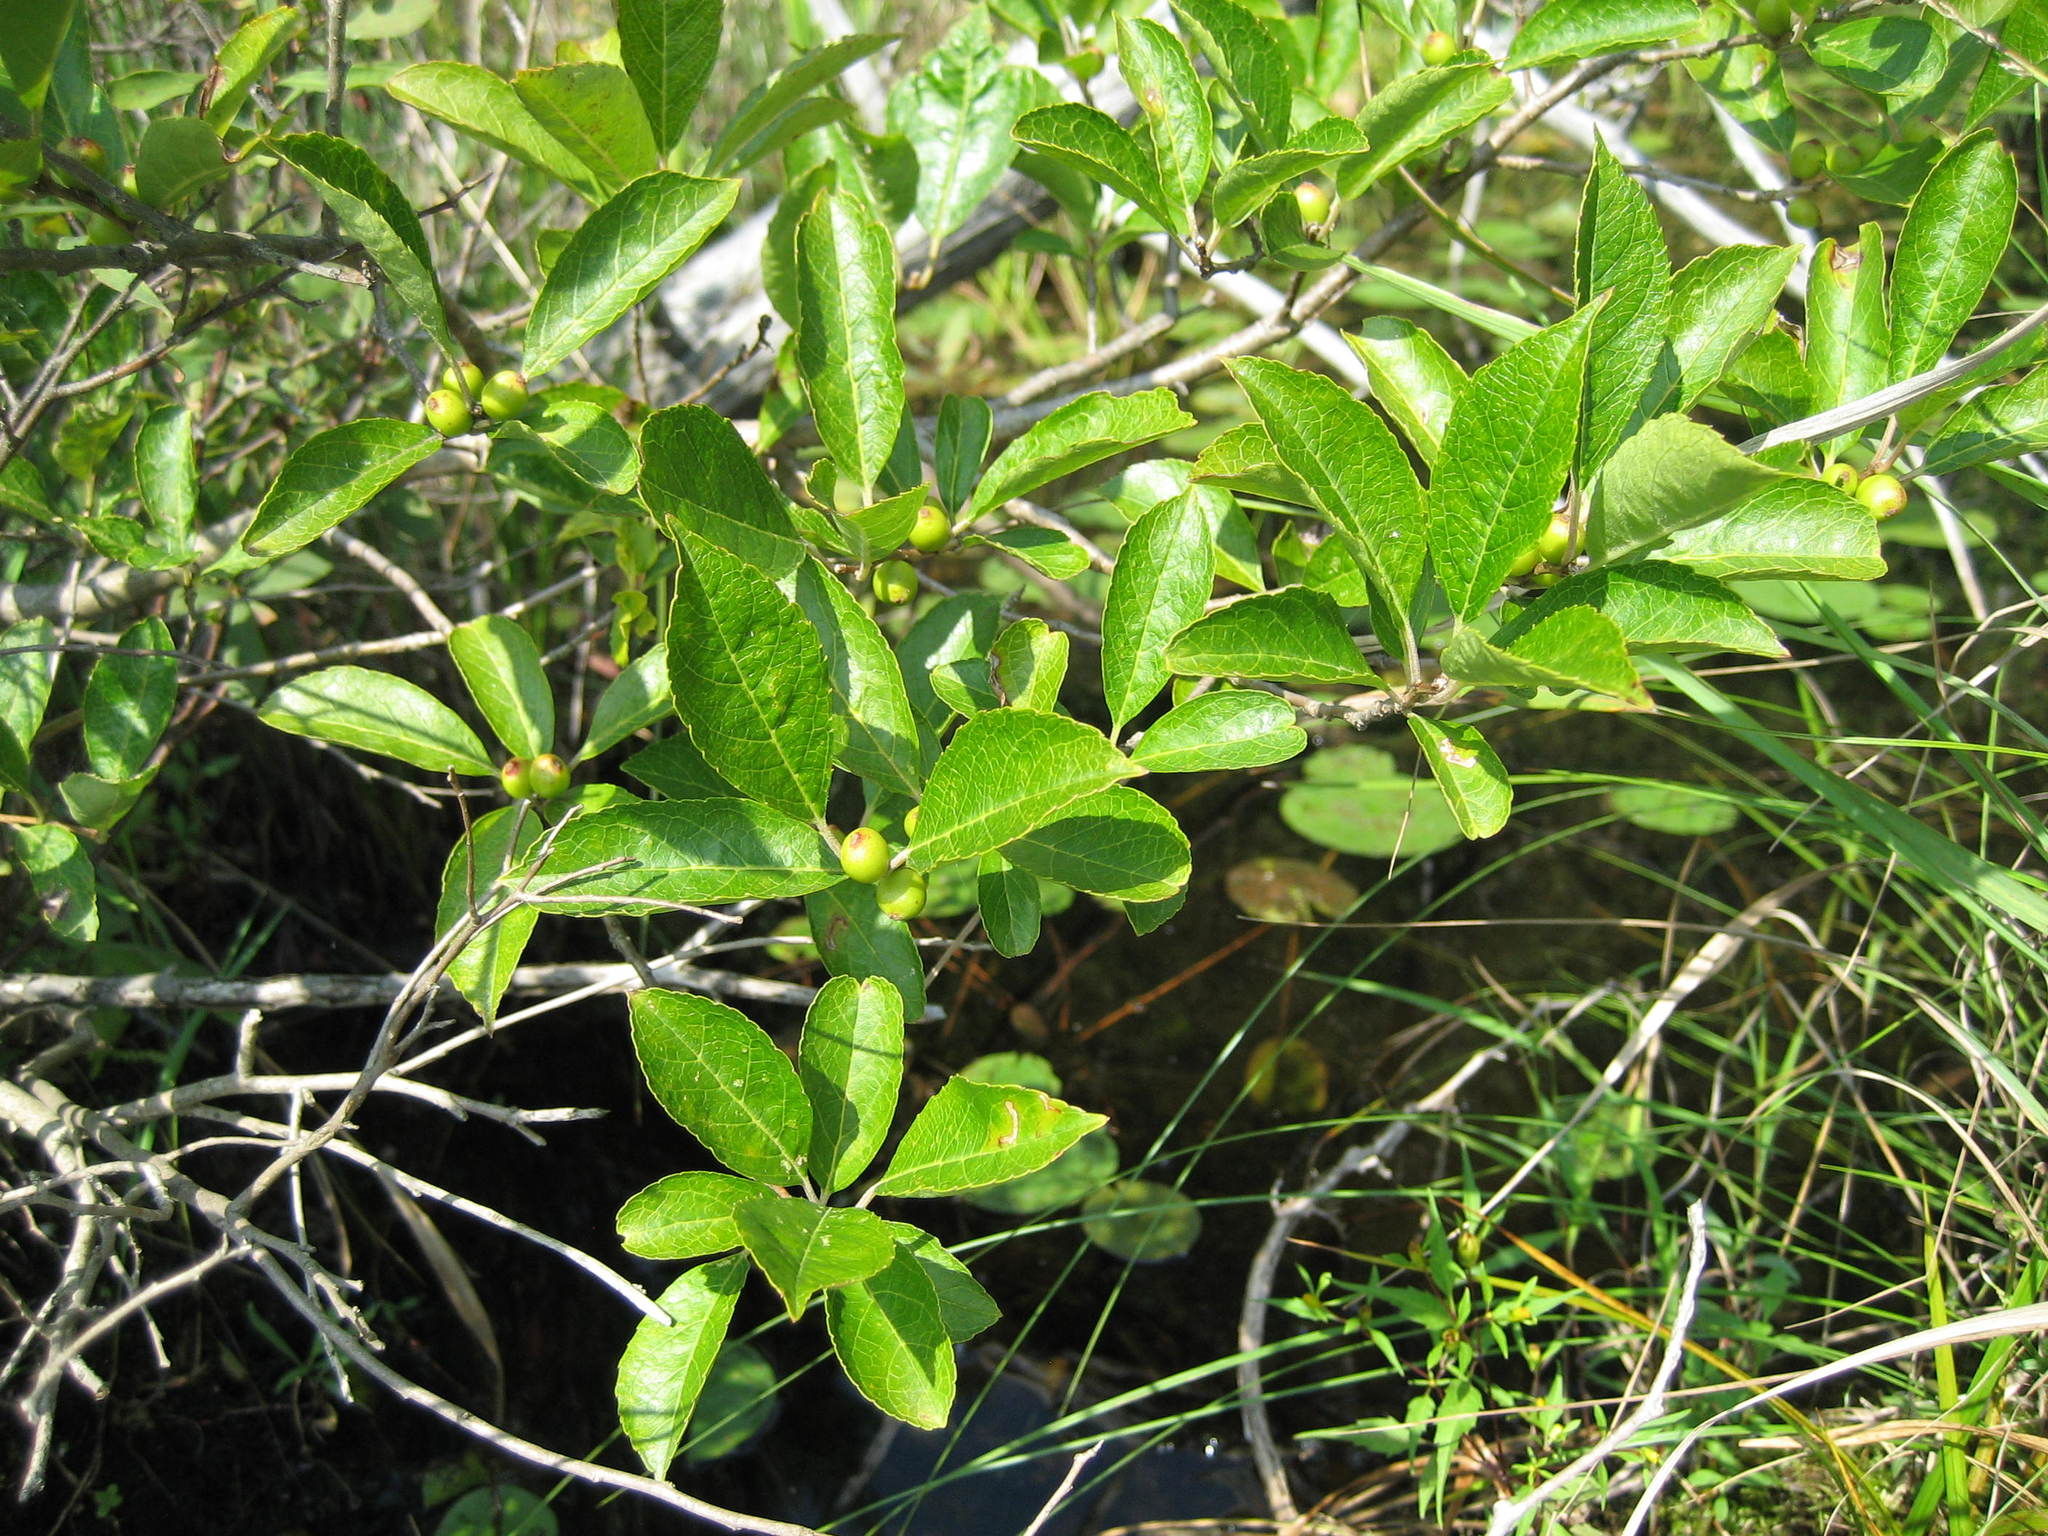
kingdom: Plantae
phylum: Tracheophyta
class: Magnoliopsida
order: Aquifoliales
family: Aquifoliaceae
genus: Ilex
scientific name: Ilex verticillata
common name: Virginia winterberry
